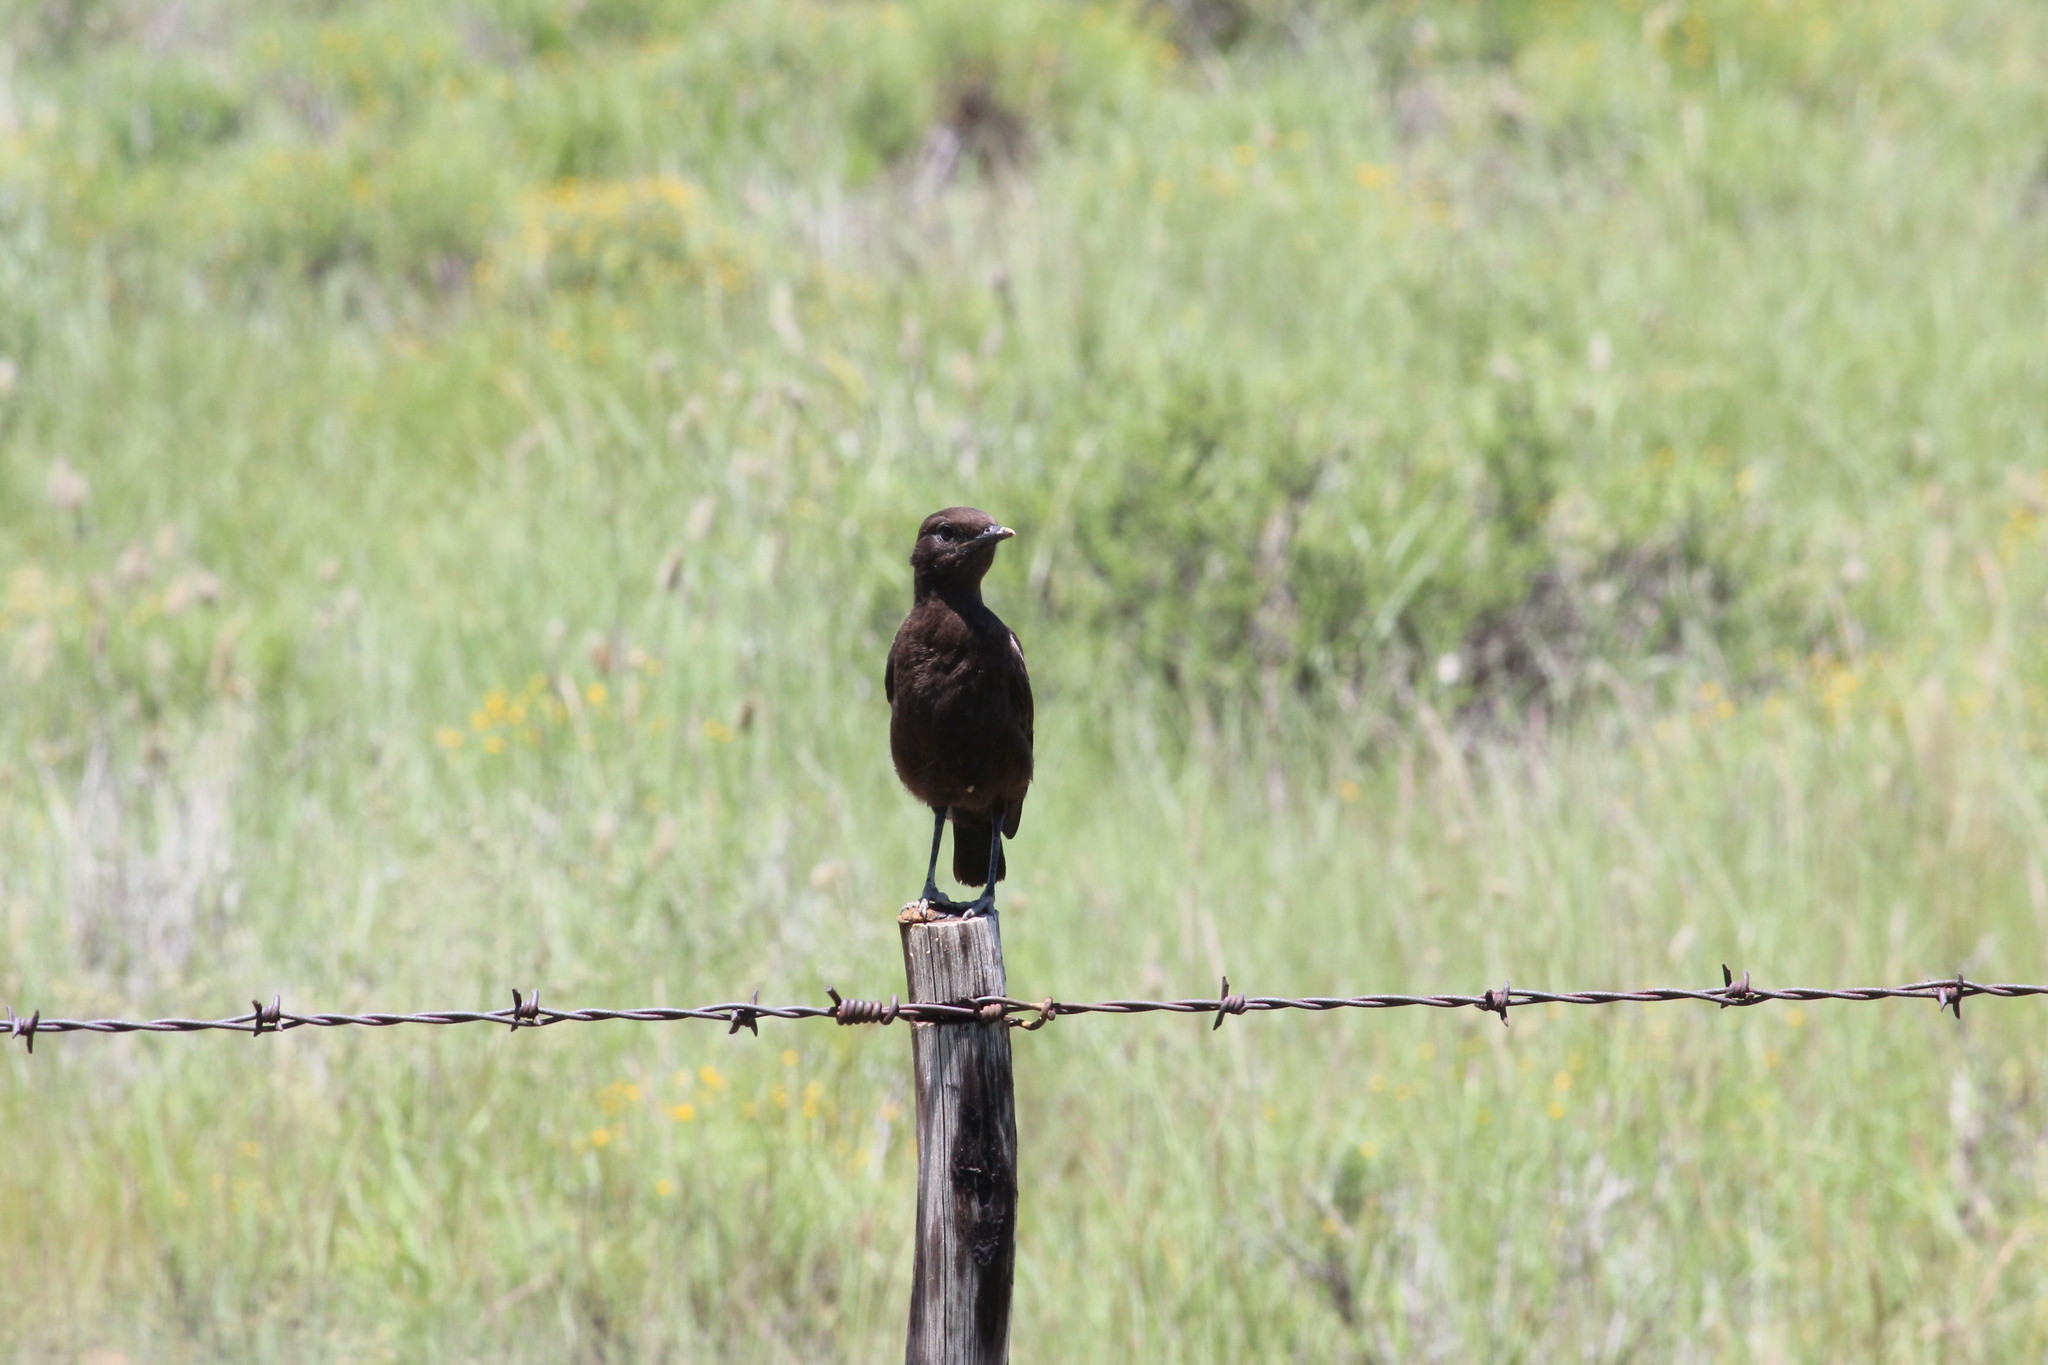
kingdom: Animalia
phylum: Chordata
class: Aves
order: Passeriformes
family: Muscicapidae
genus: Myrmecocichla
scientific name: Myrmecocichla formicivora
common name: Ant-eating chat
